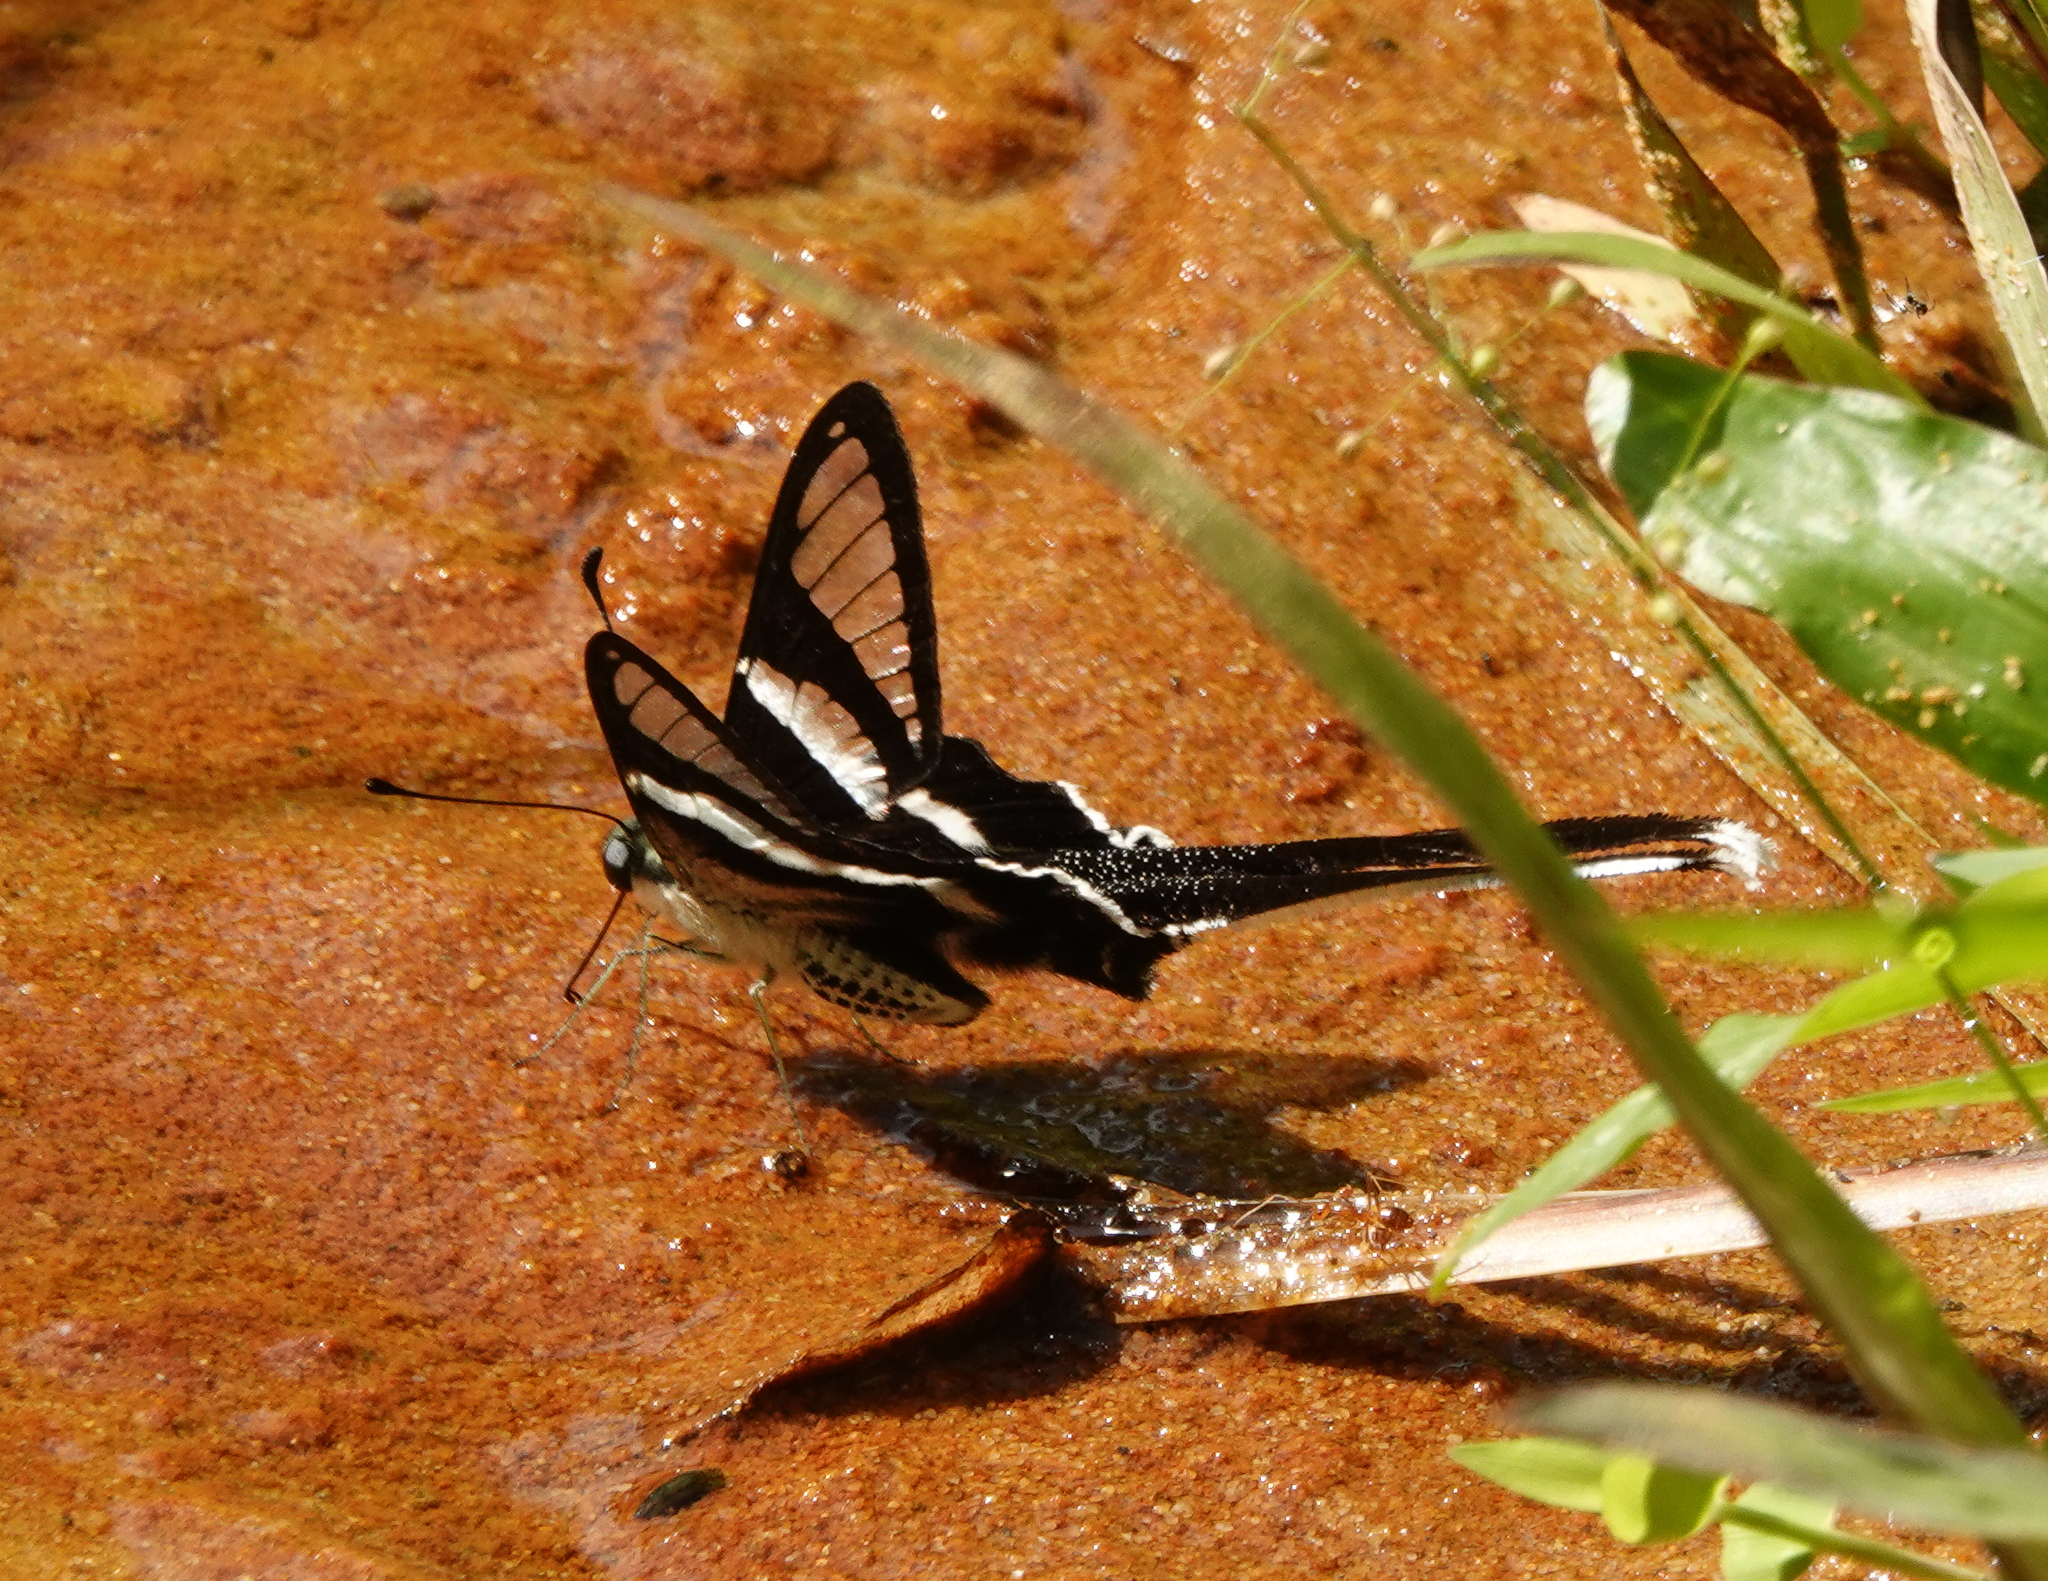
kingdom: Animalia
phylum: Arthropoda
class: Insecta
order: Lepidoptera
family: Papilionidae
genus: Lamproptera
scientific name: Lamproptera curius
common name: White dragontail
